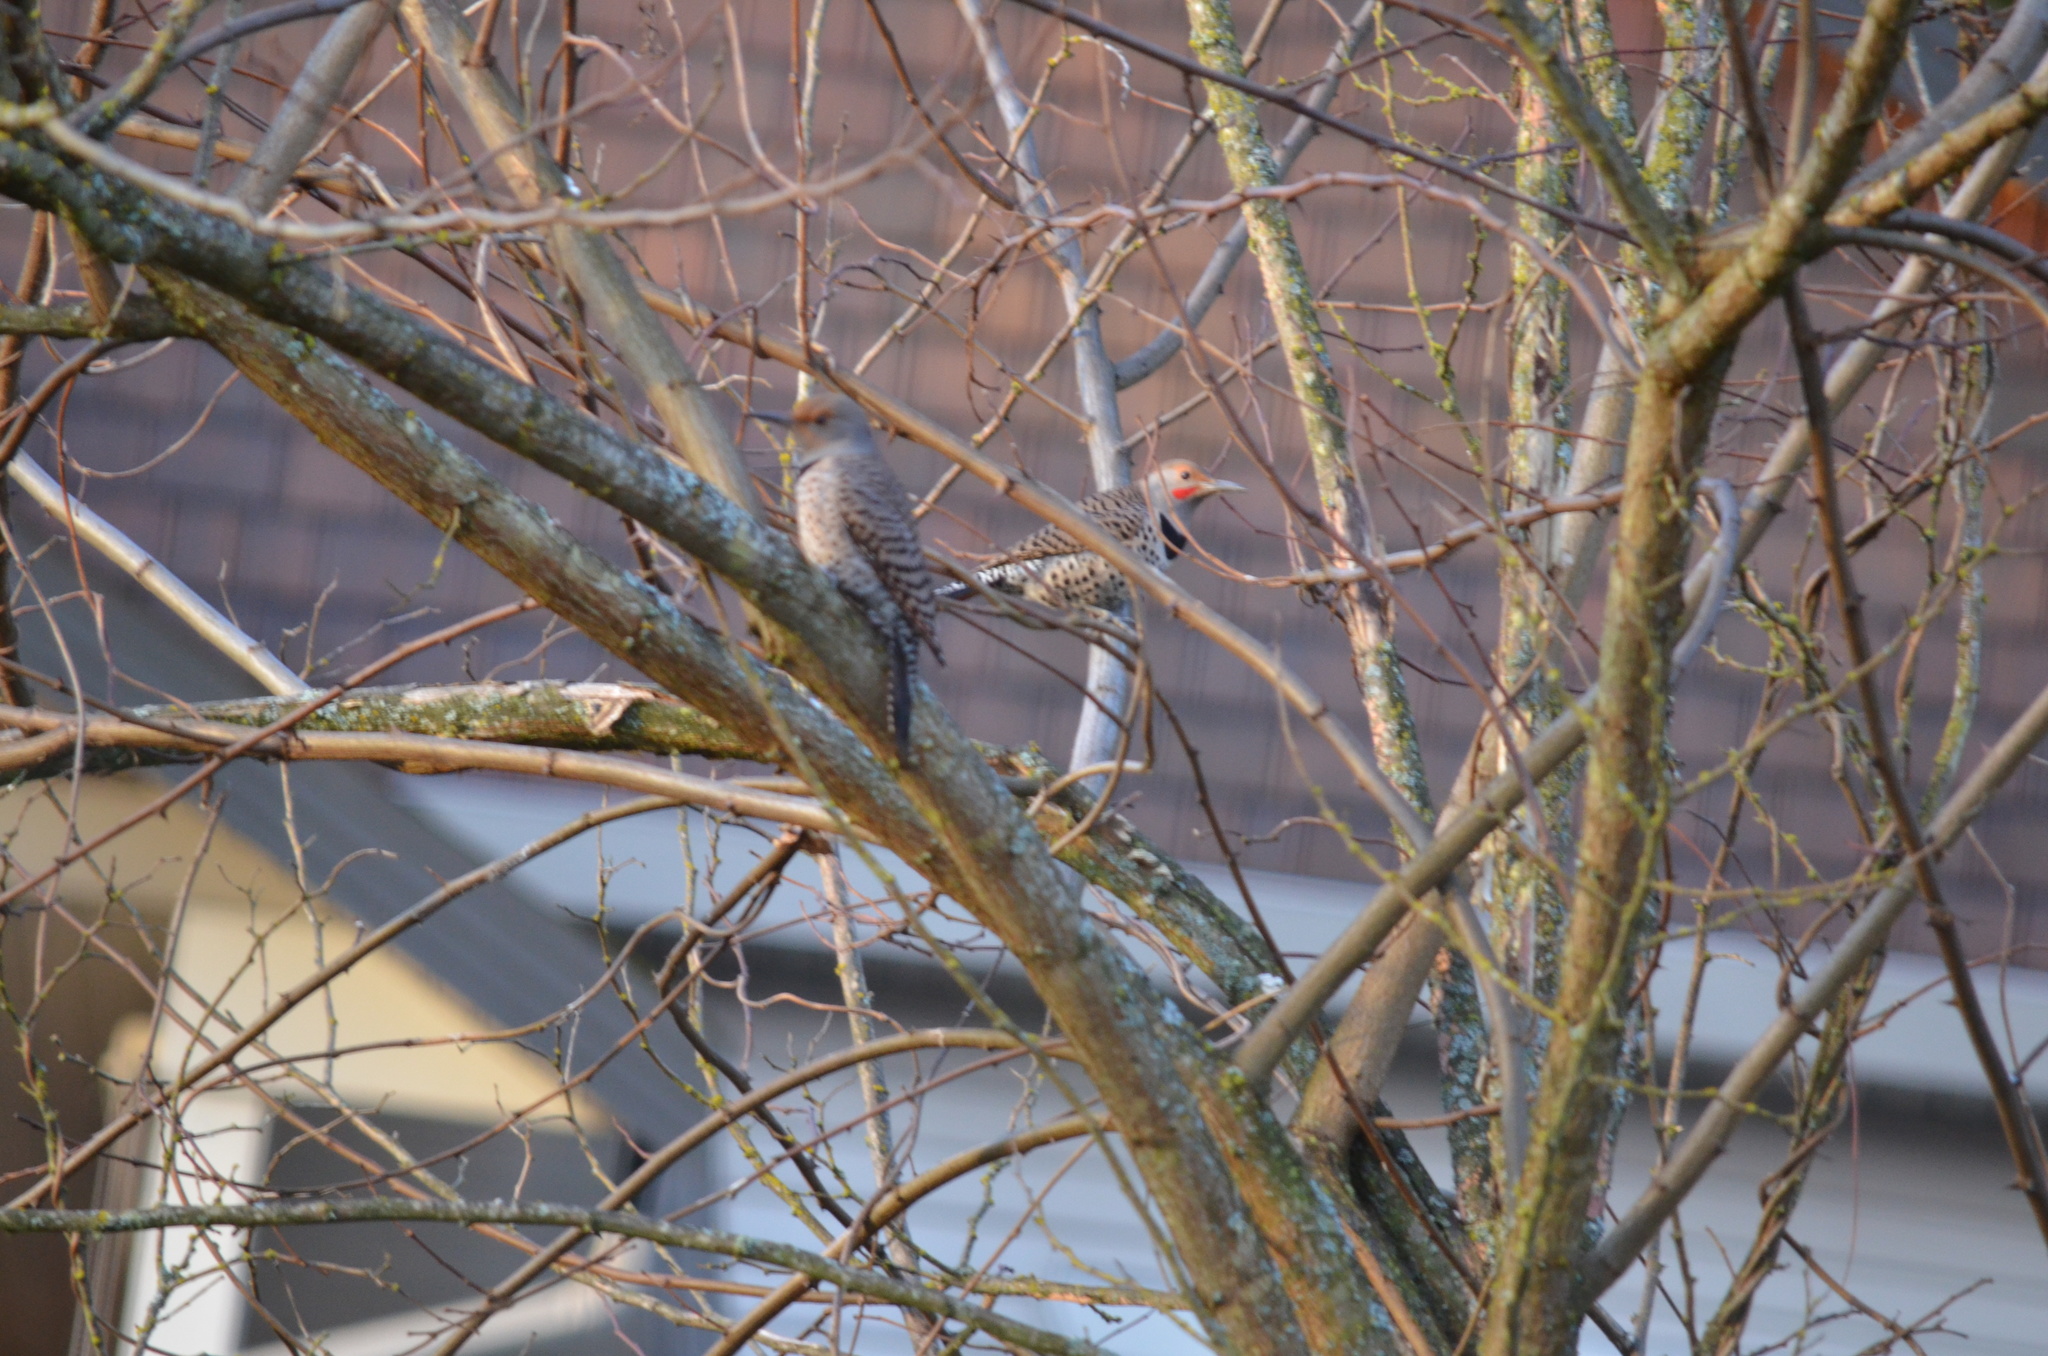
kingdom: Animalia
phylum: Chordata
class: Aves
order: Piciformes
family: Picidae
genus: Colaptes
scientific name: Colaptes auratus
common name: Northern flicker
